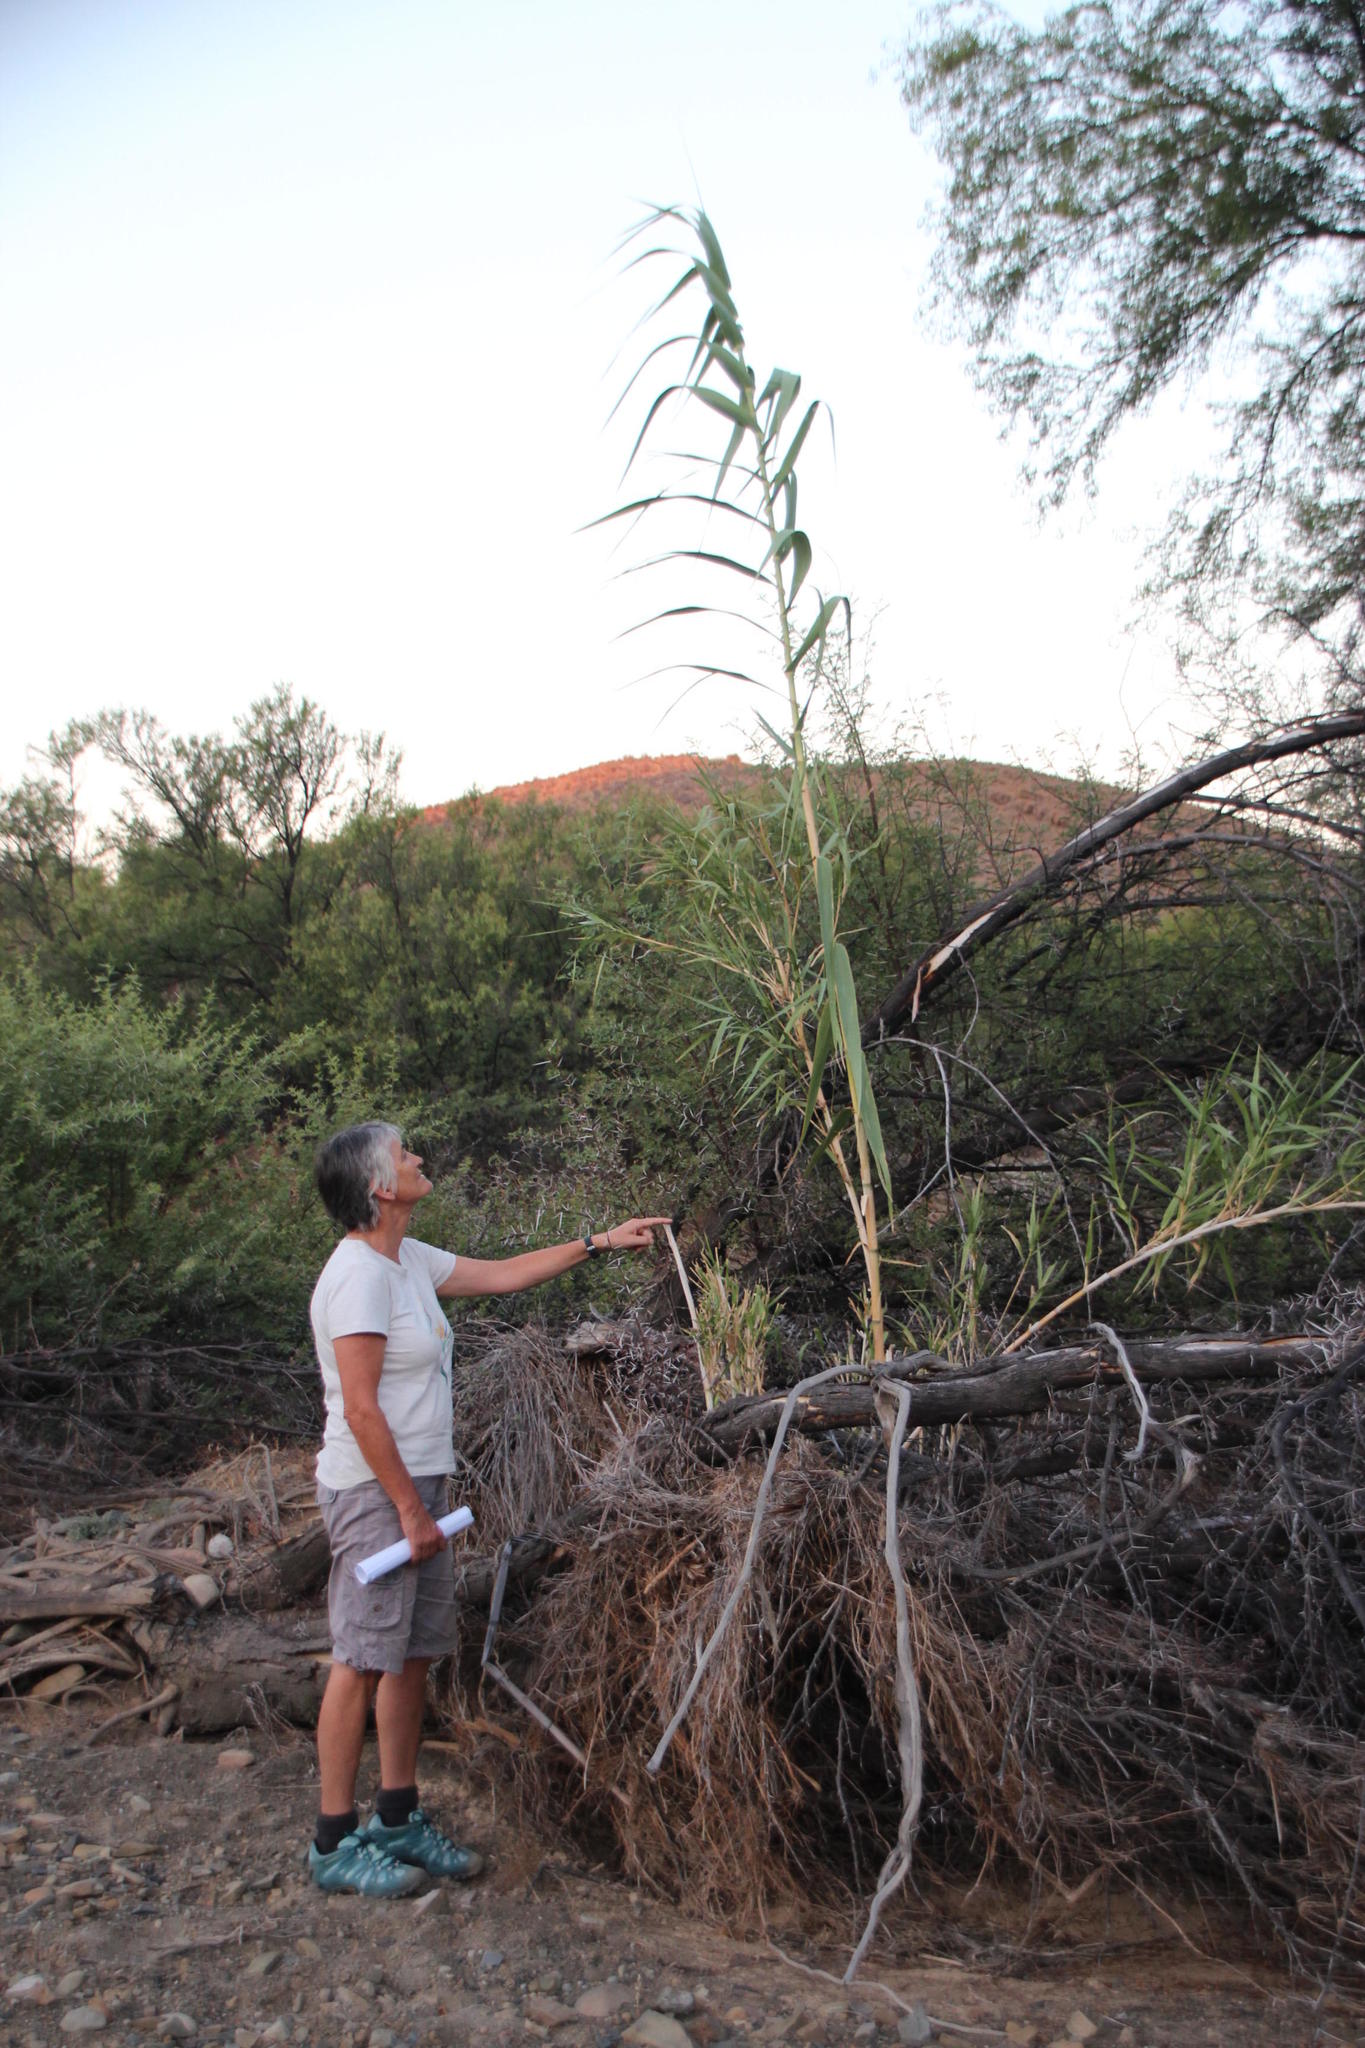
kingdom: Plantae
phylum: Tracheophyta
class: Liliopsida
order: Poales
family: Poaceae
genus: Arundo
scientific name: Arundo donax
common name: Giant reed
